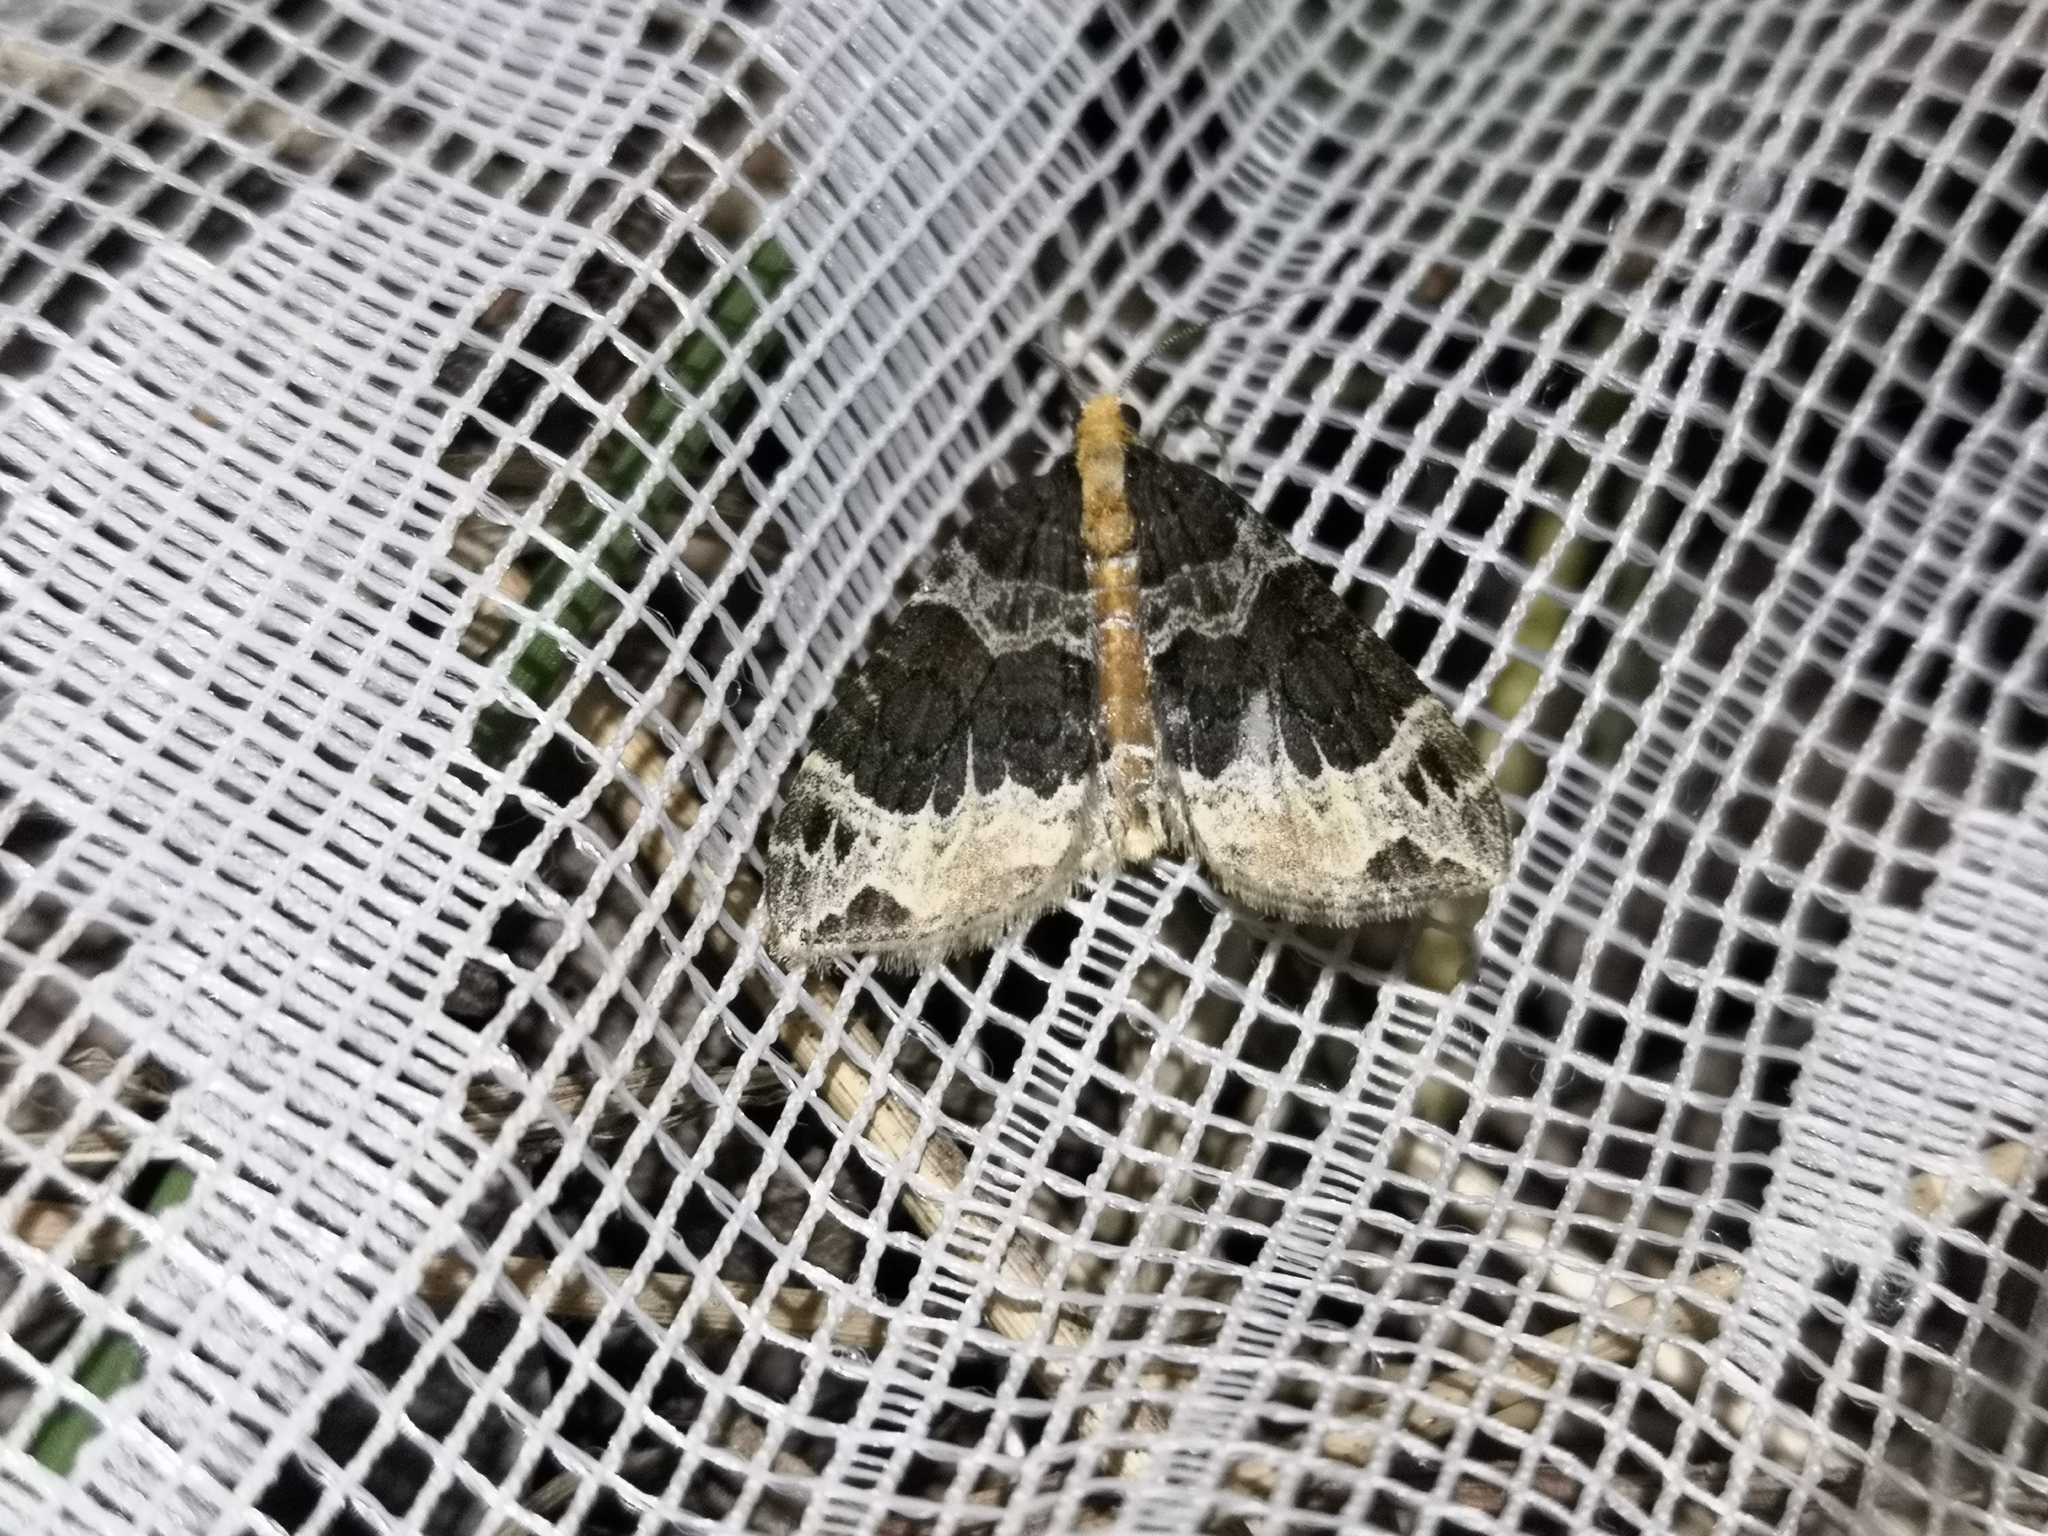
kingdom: Animalia
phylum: Arthropoda
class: Insecta
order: Lepidoptera
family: Geometridae
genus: Ecliptopera
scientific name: Ecliptopera capitata
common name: Yellow-headed phoenix
